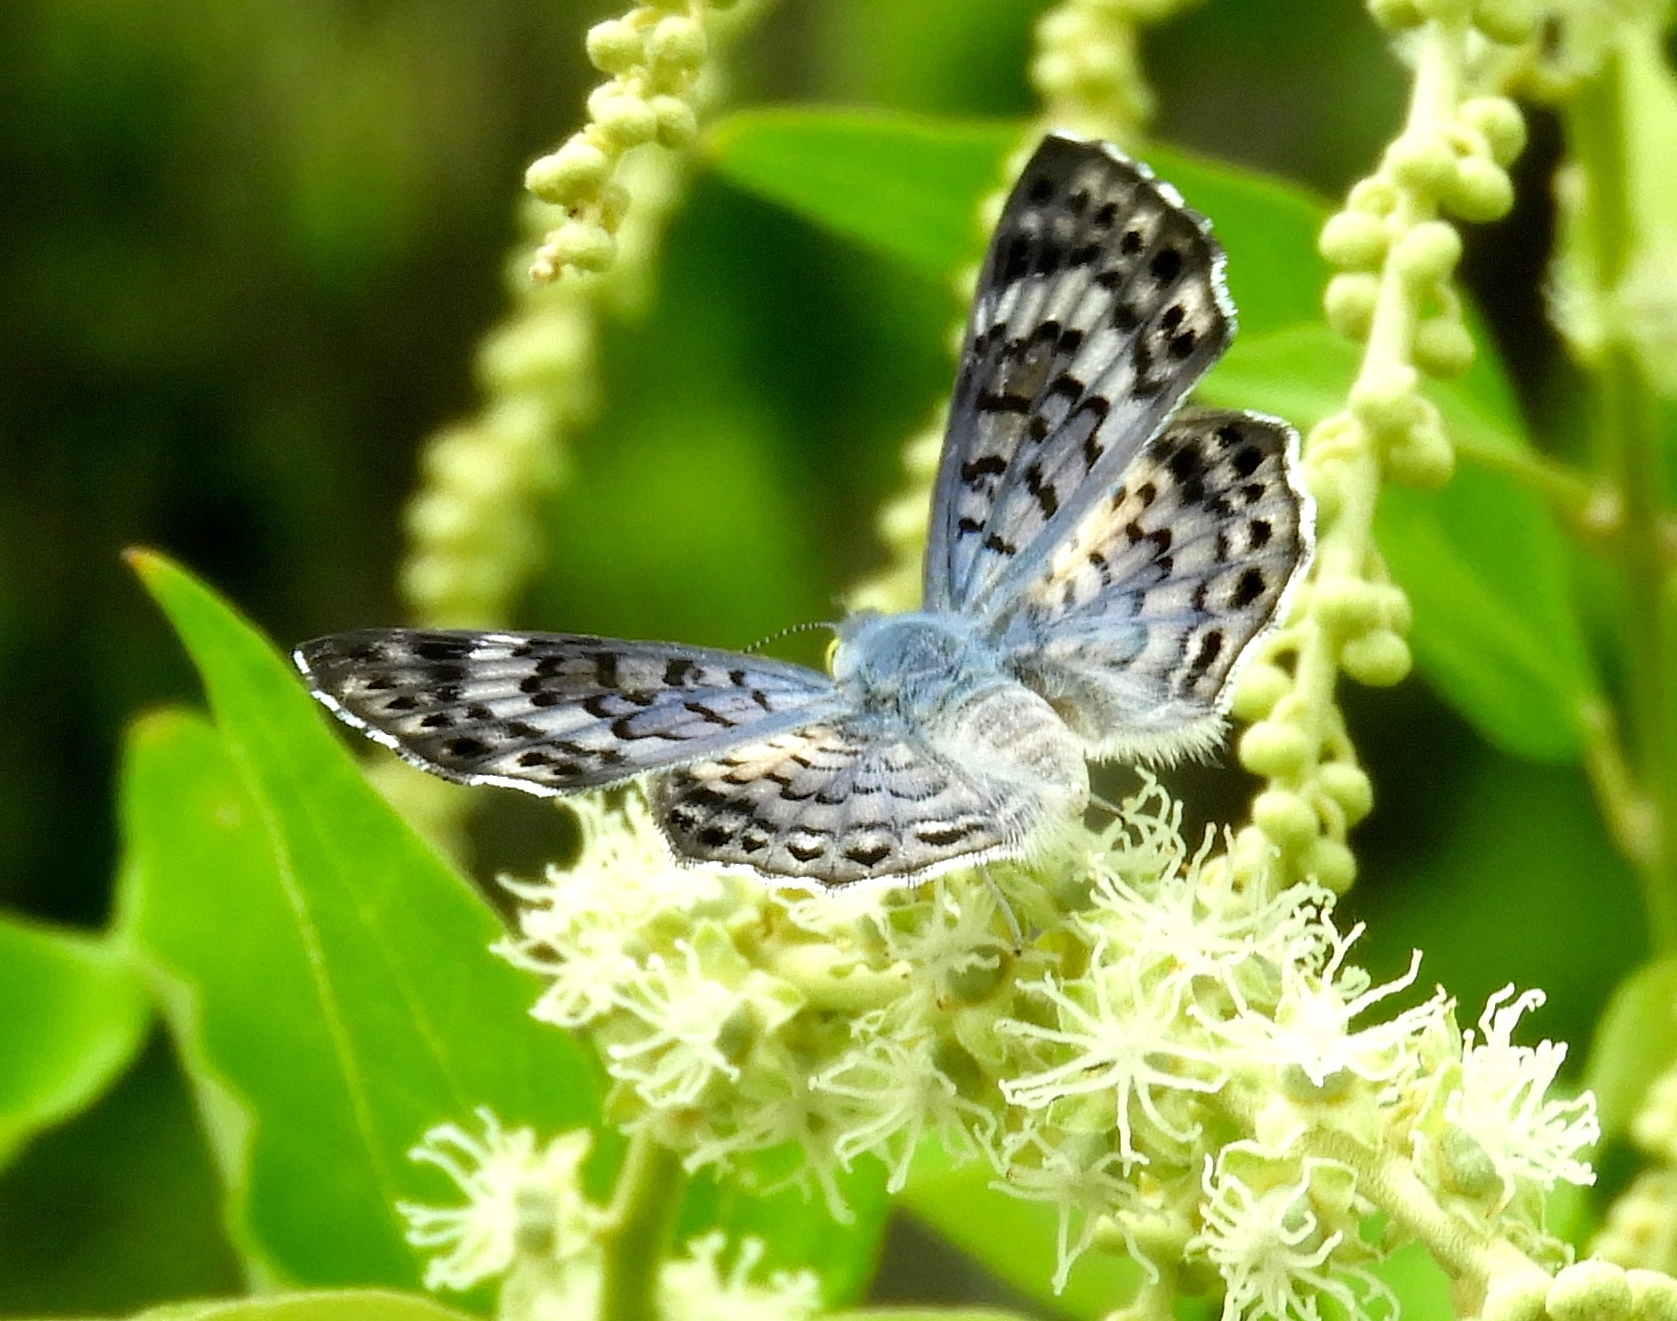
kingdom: Animalia
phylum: Arthropoda
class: Insecta
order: Diptera
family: Acroceridae
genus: Lasia
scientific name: Lasia
